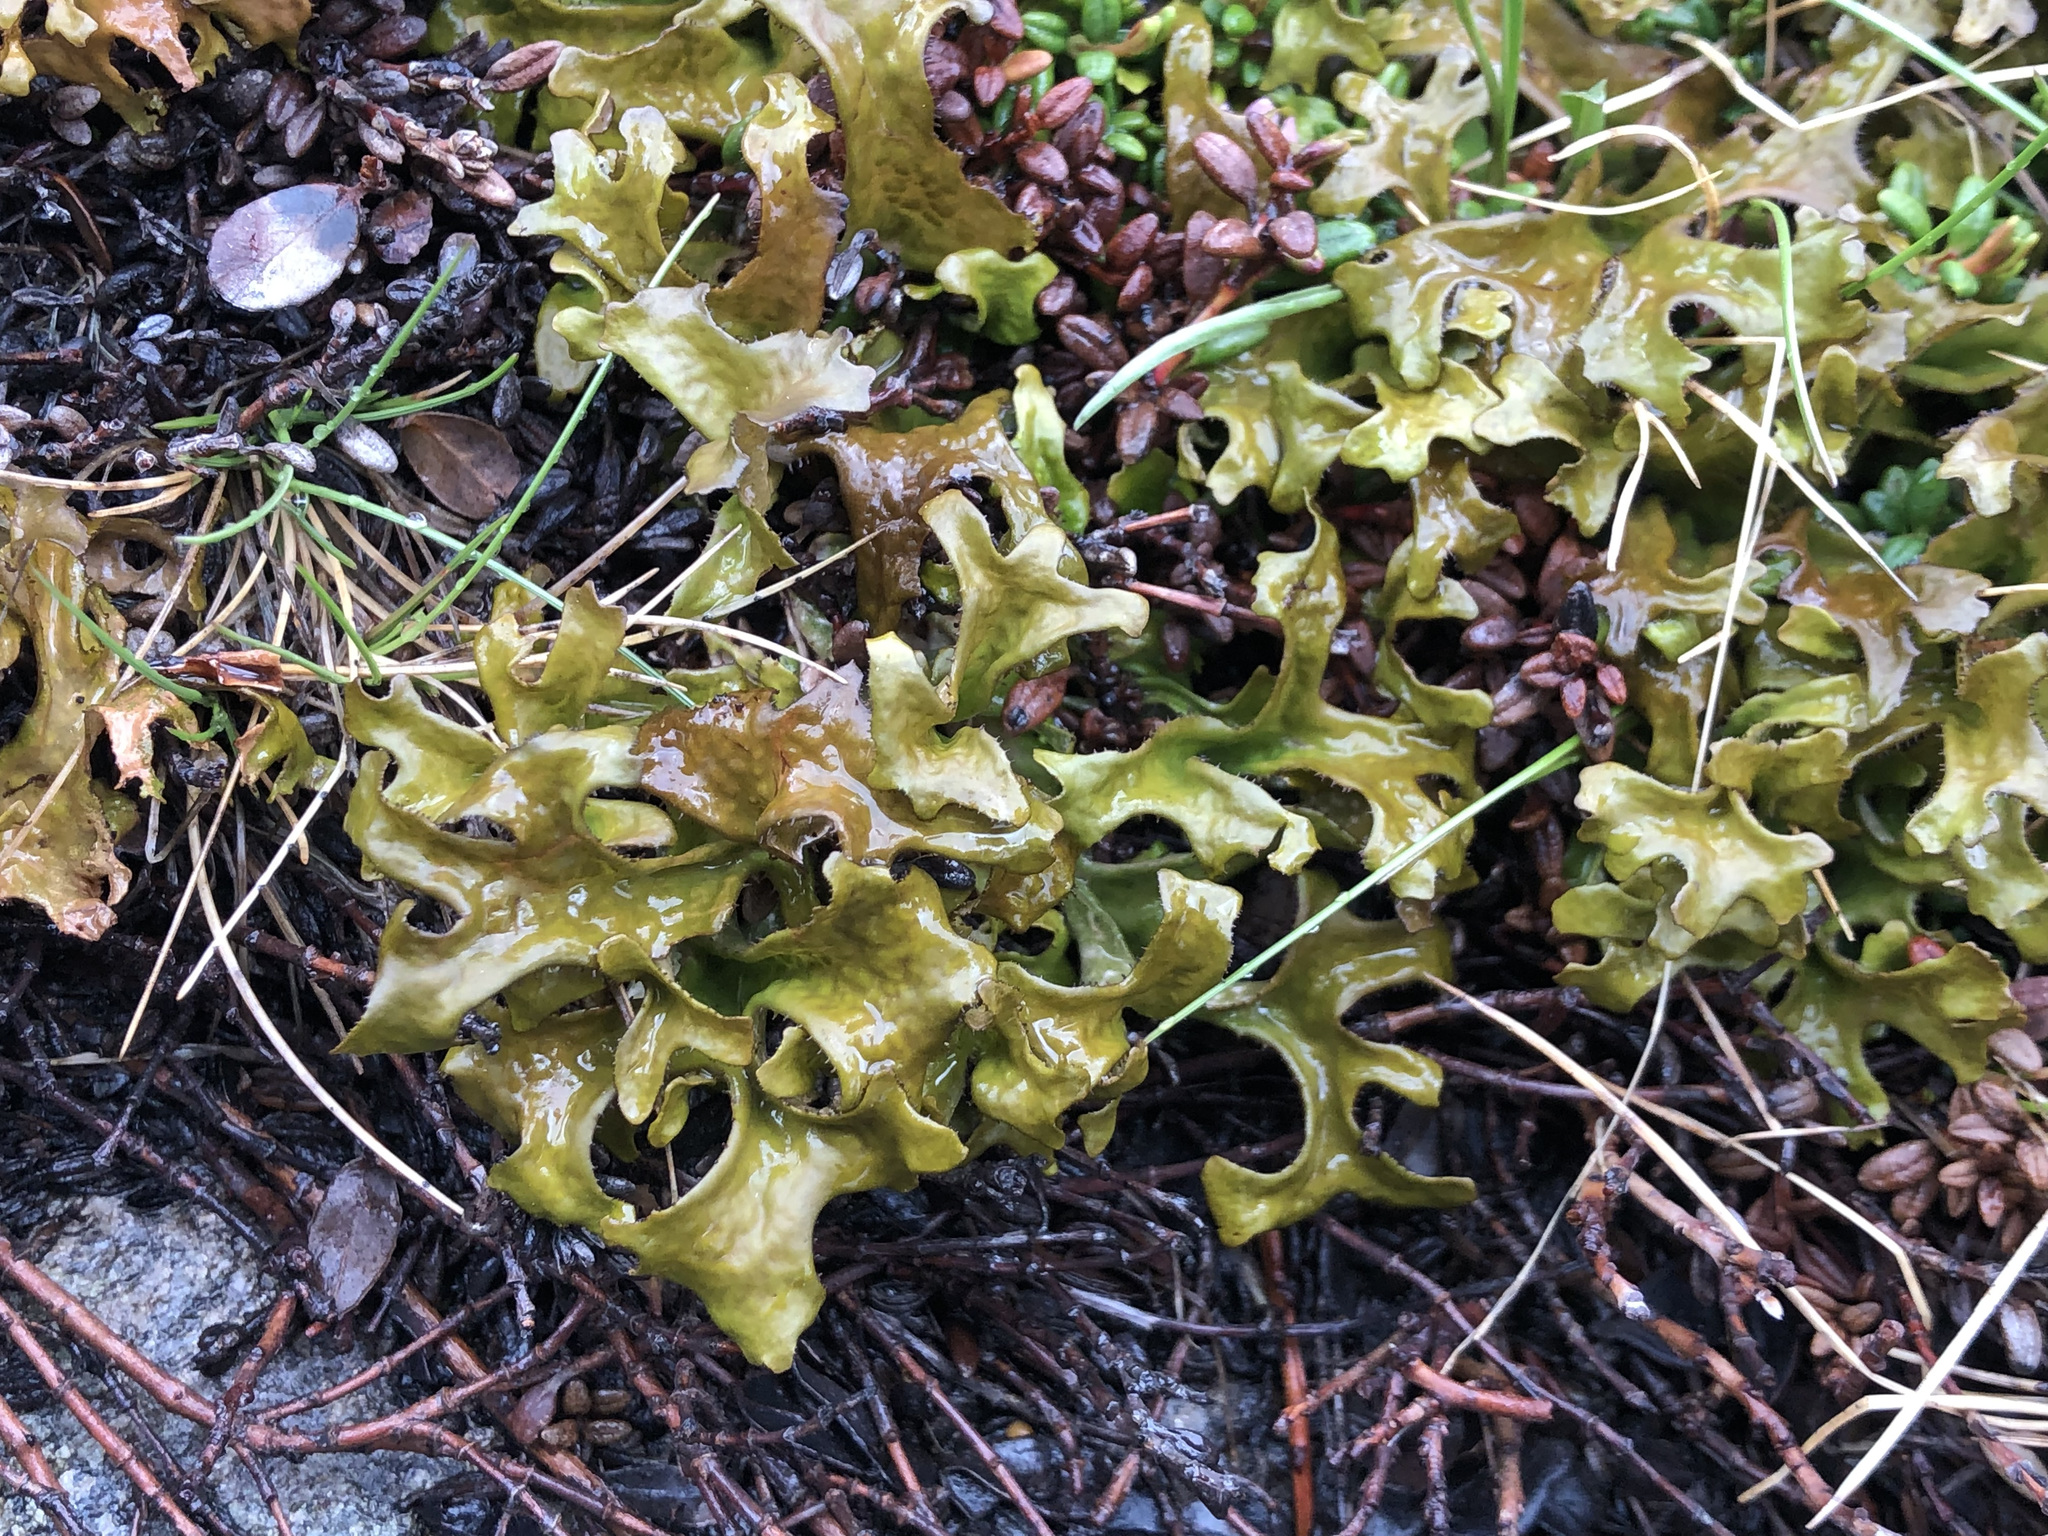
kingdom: Fungi
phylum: Ascomycota
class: Lecanoromycetes
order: Lecanorales
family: Parmeliaceae
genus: Cetraria
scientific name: Cetraria islandica
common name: Iceland lichen
